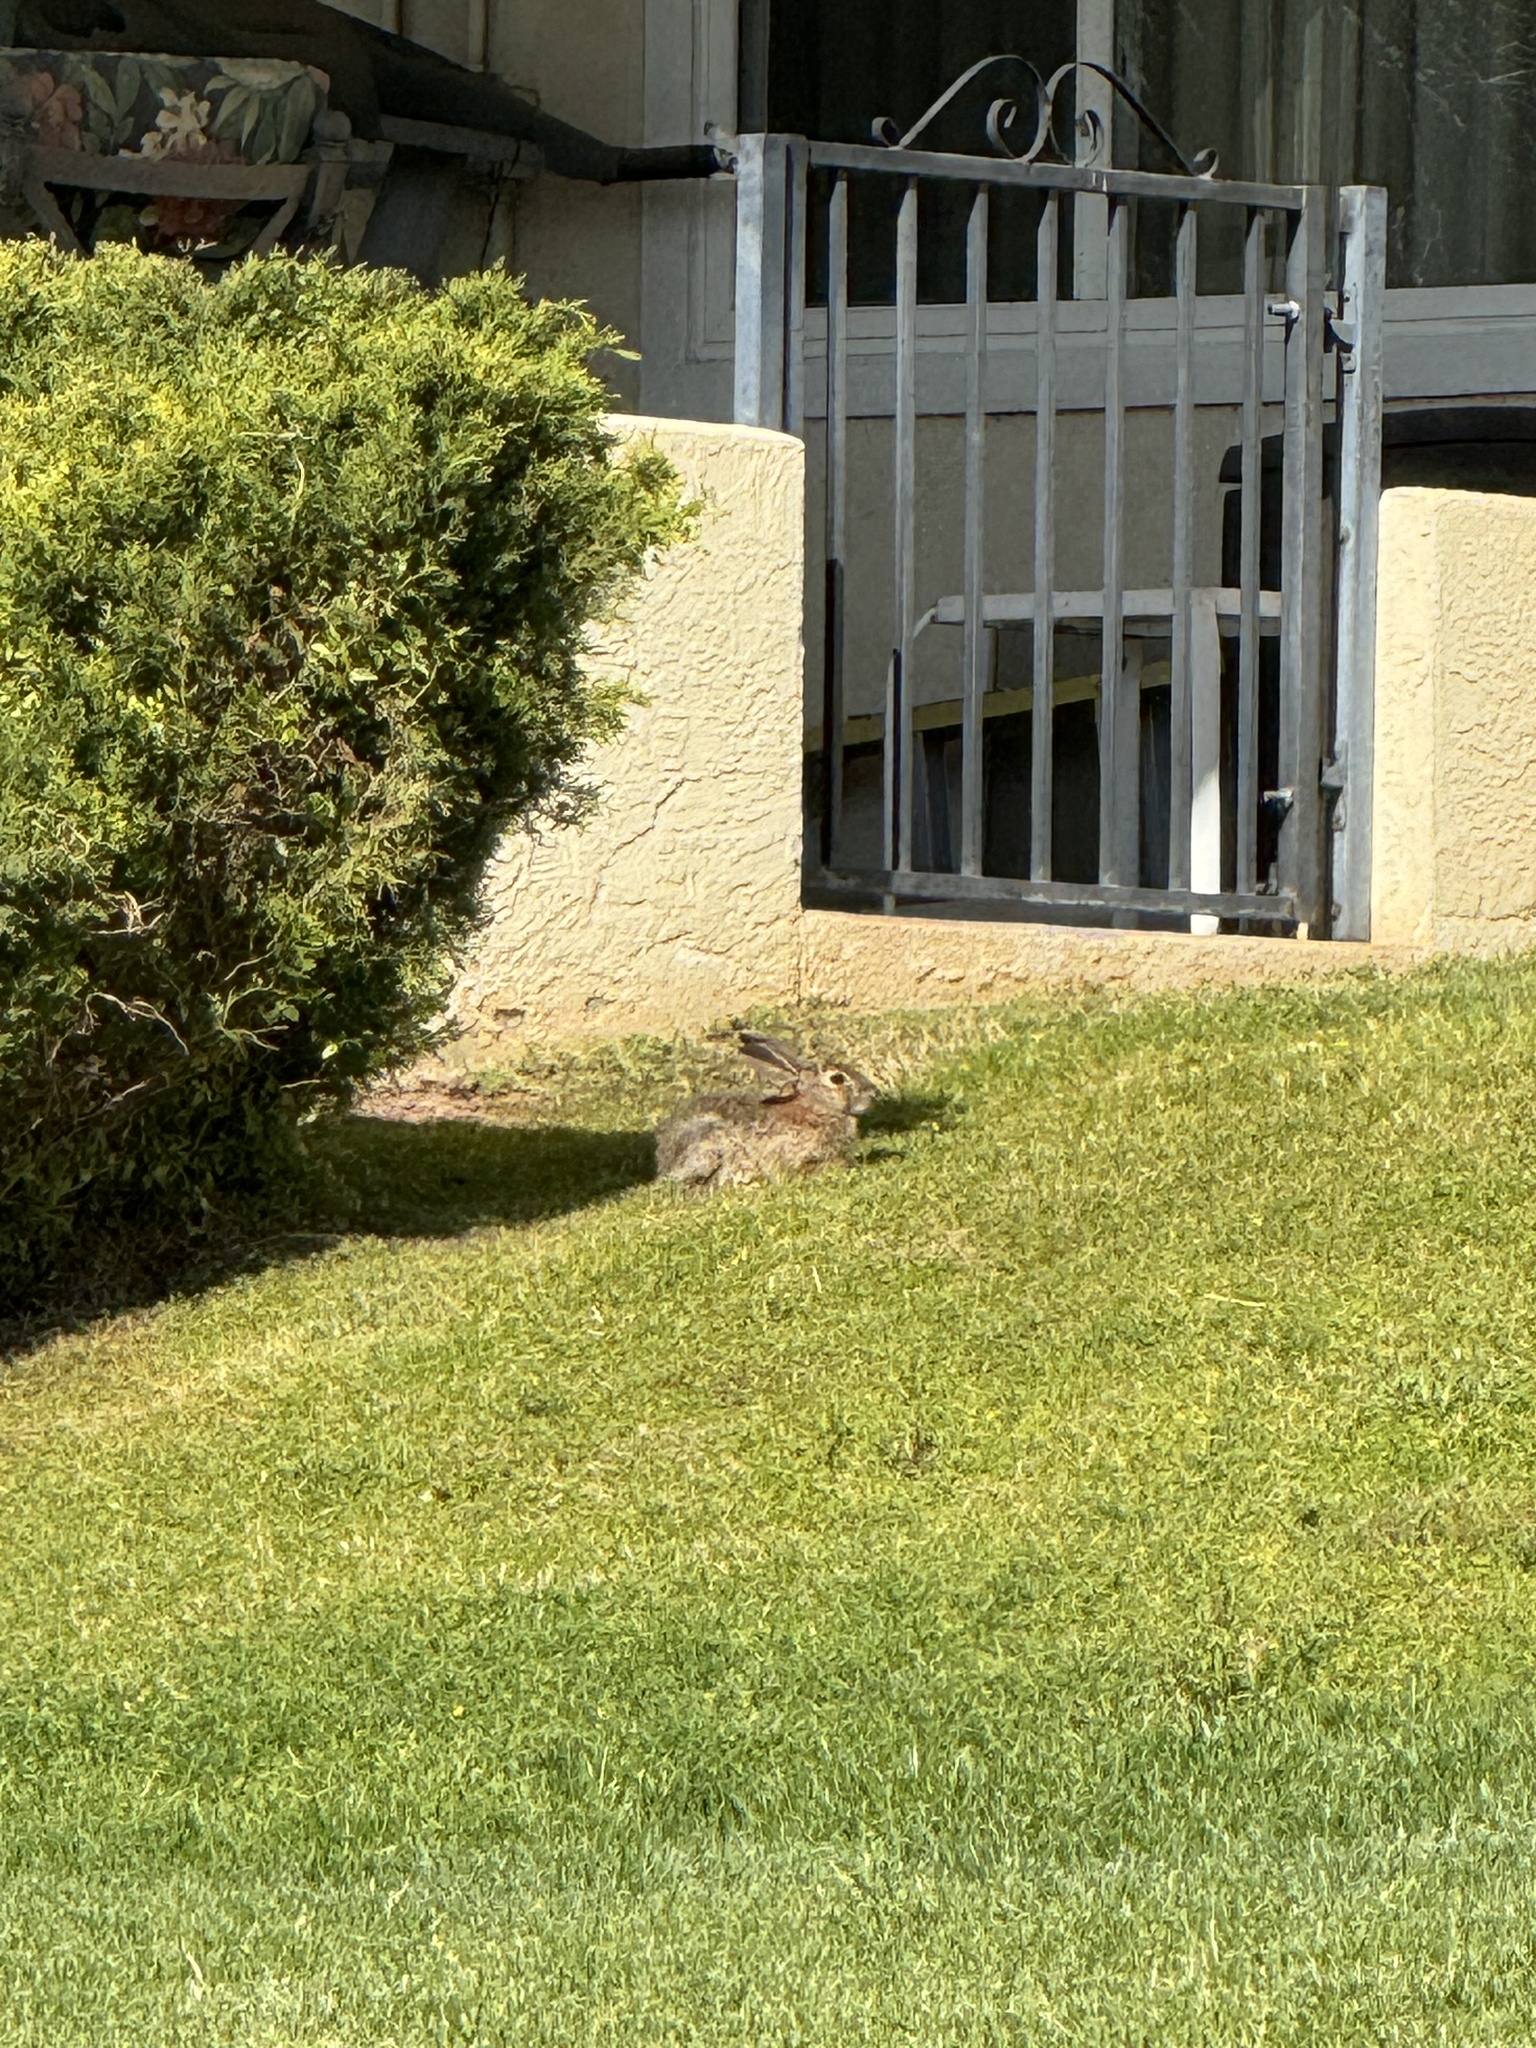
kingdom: Animalia
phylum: Chordata
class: Mammalia
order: Lagomorpha
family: Leporidae
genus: Sylvilagus
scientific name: Sylvilagus audubonii
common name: Desert cottontail
